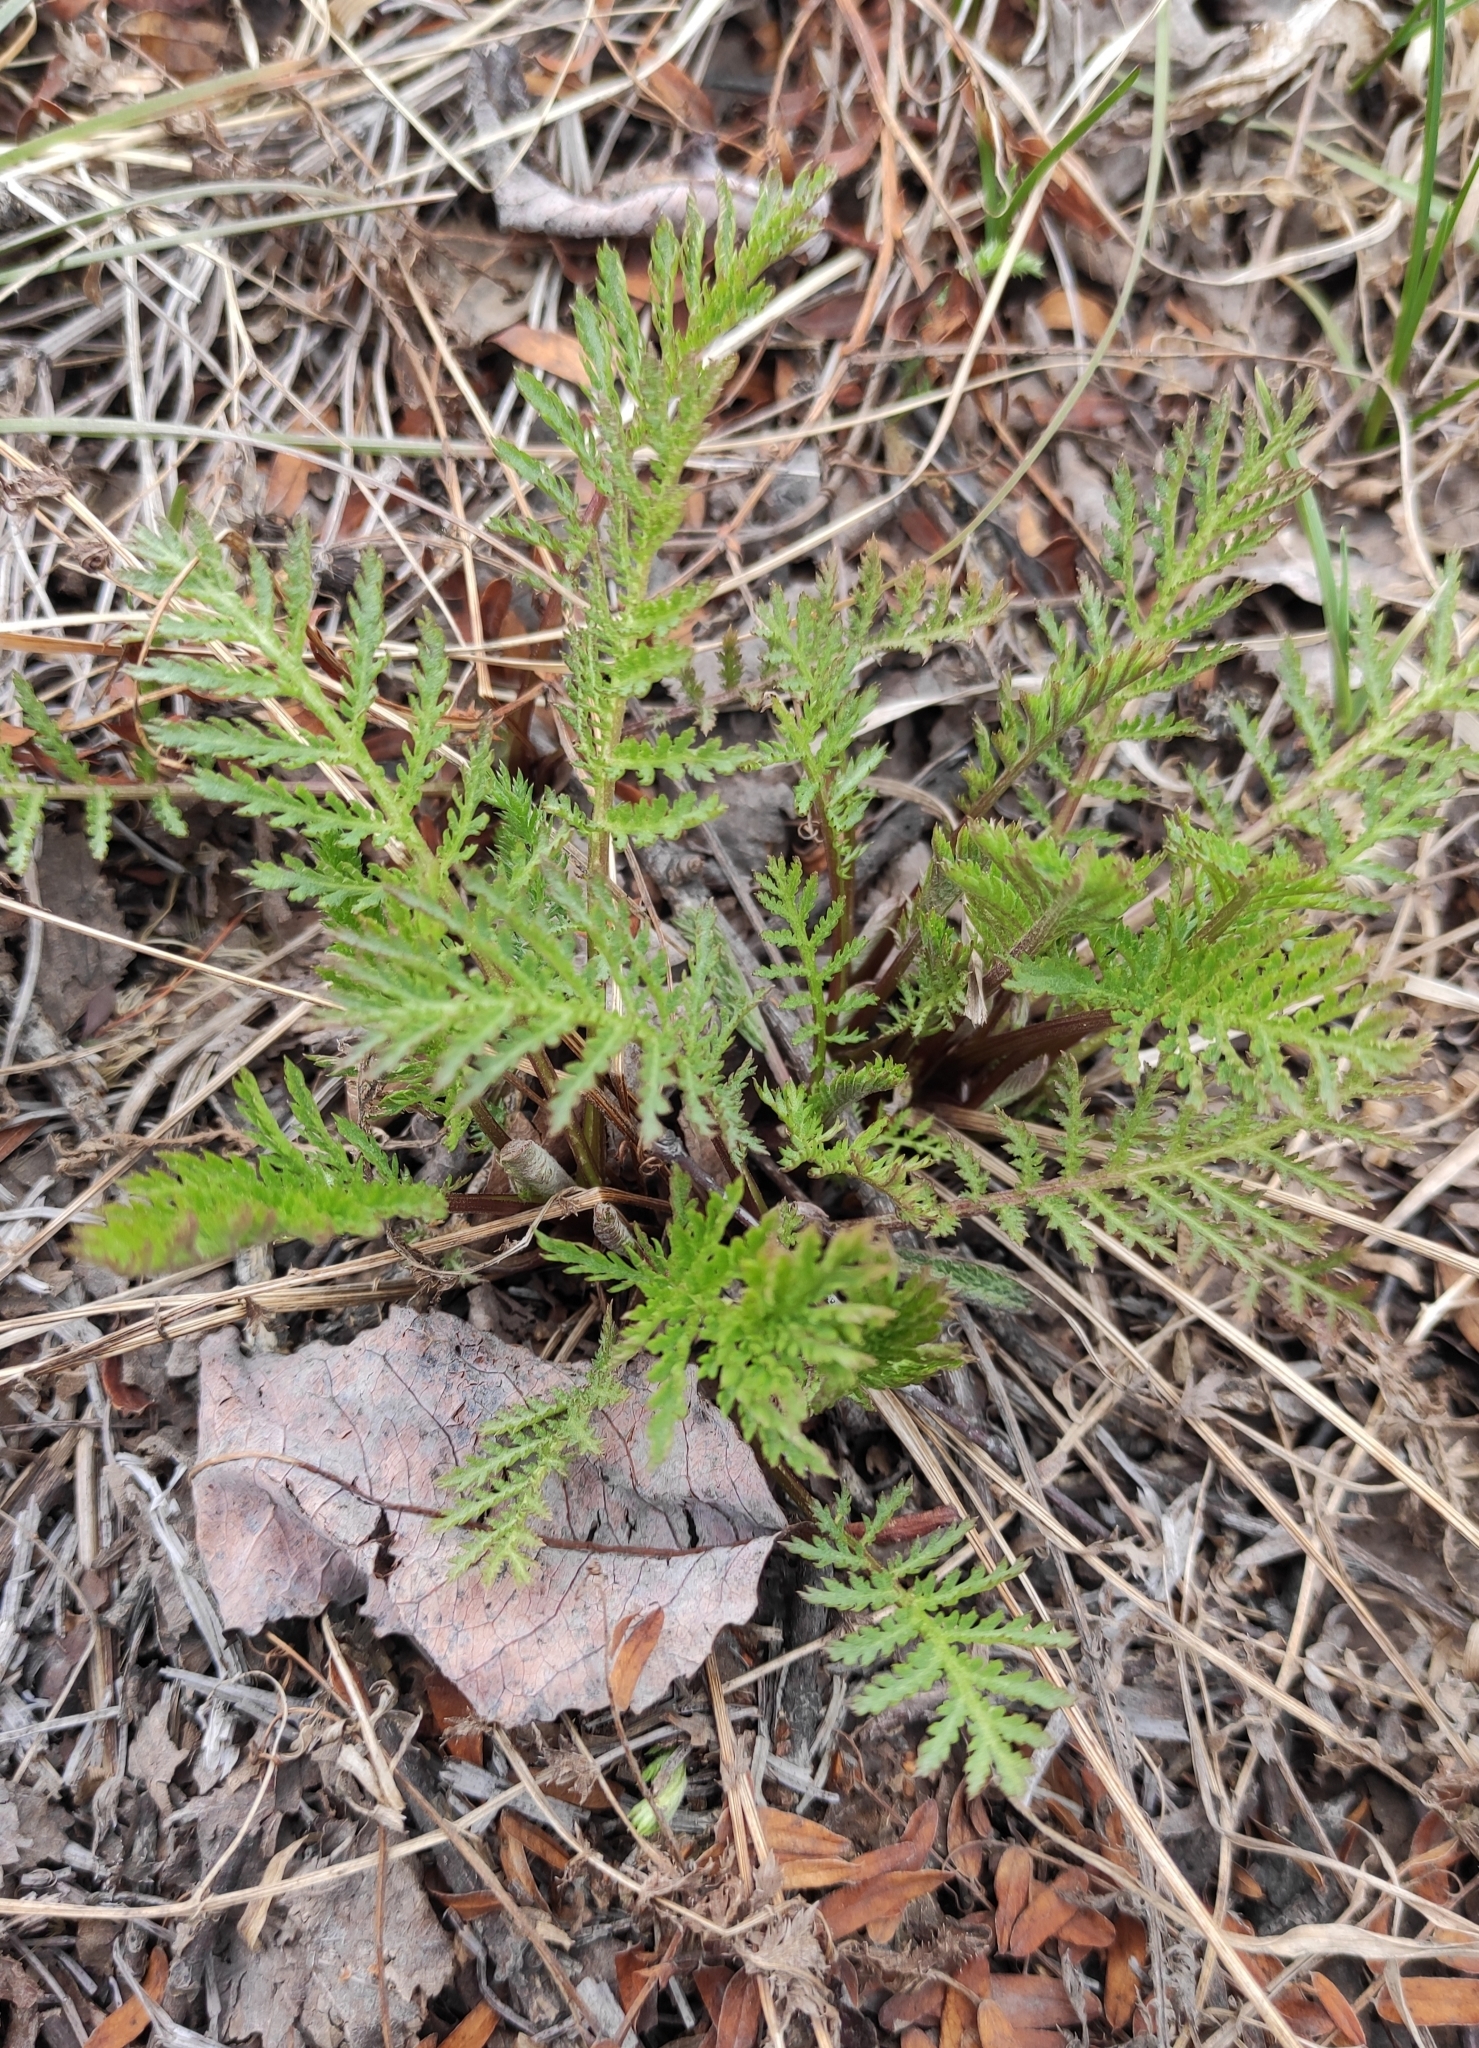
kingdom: Plantae
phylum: Tracheophyta
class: Magnoliopsida
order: Asterales
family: Asteraceae
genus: Tanacetum
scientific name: Tanacetum vulgare
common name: Common tansy
